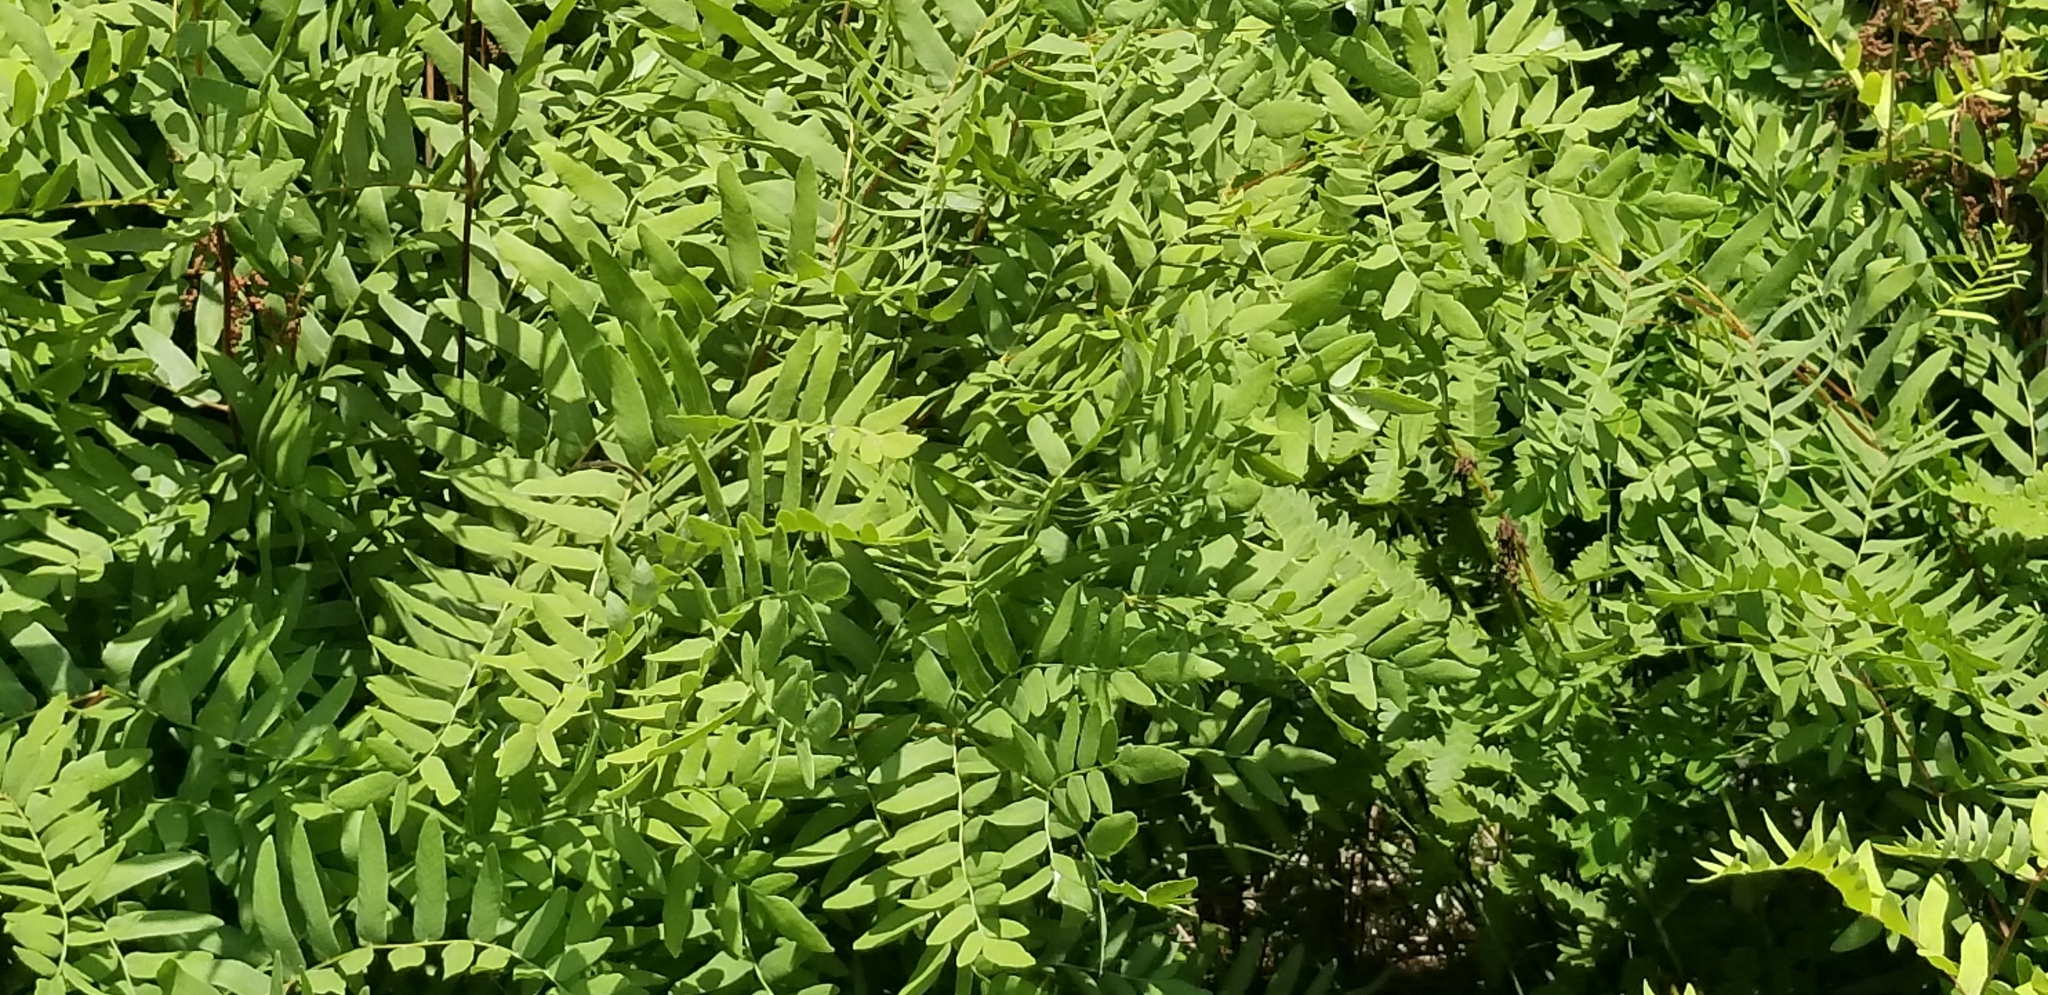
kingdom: Plantae
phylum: Tracheophyta
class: Polypodiopsida
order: Osmundales
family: Osmundaceae
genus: Osmunda
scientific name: Osmunda spectabilis
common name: American royal fern
